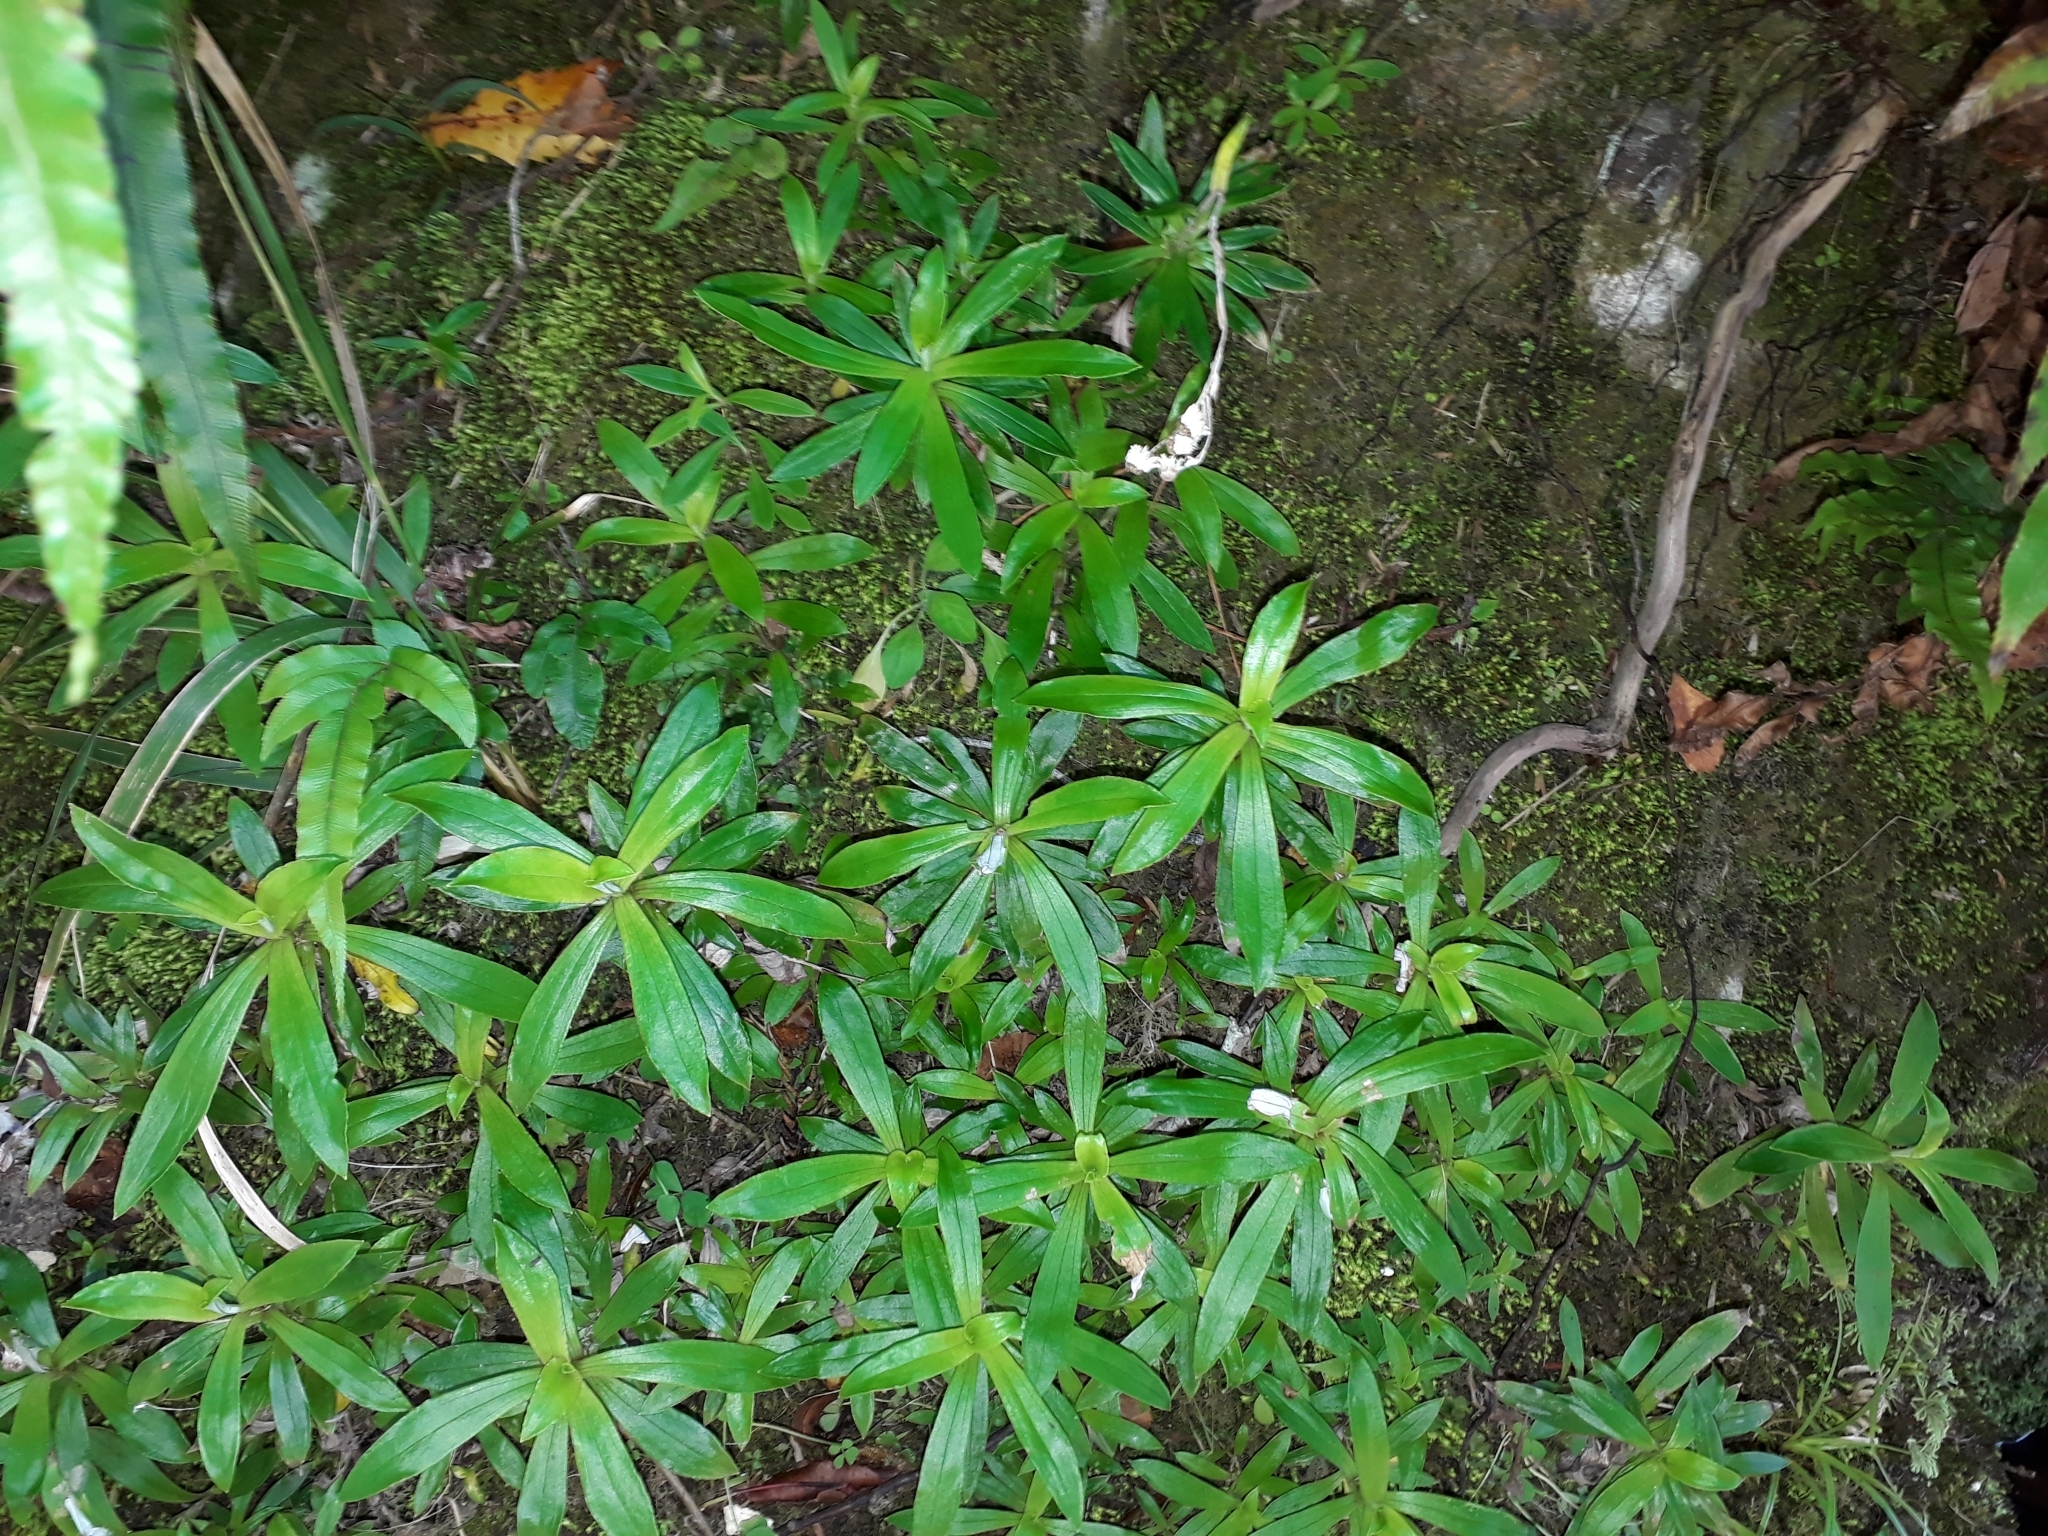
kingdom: Plantae
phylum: Tracheophyta
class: Magnoliopsida
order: Asterales
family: Asteraceae
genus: Anaphalioides
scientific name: Anaphalioides trinervis
